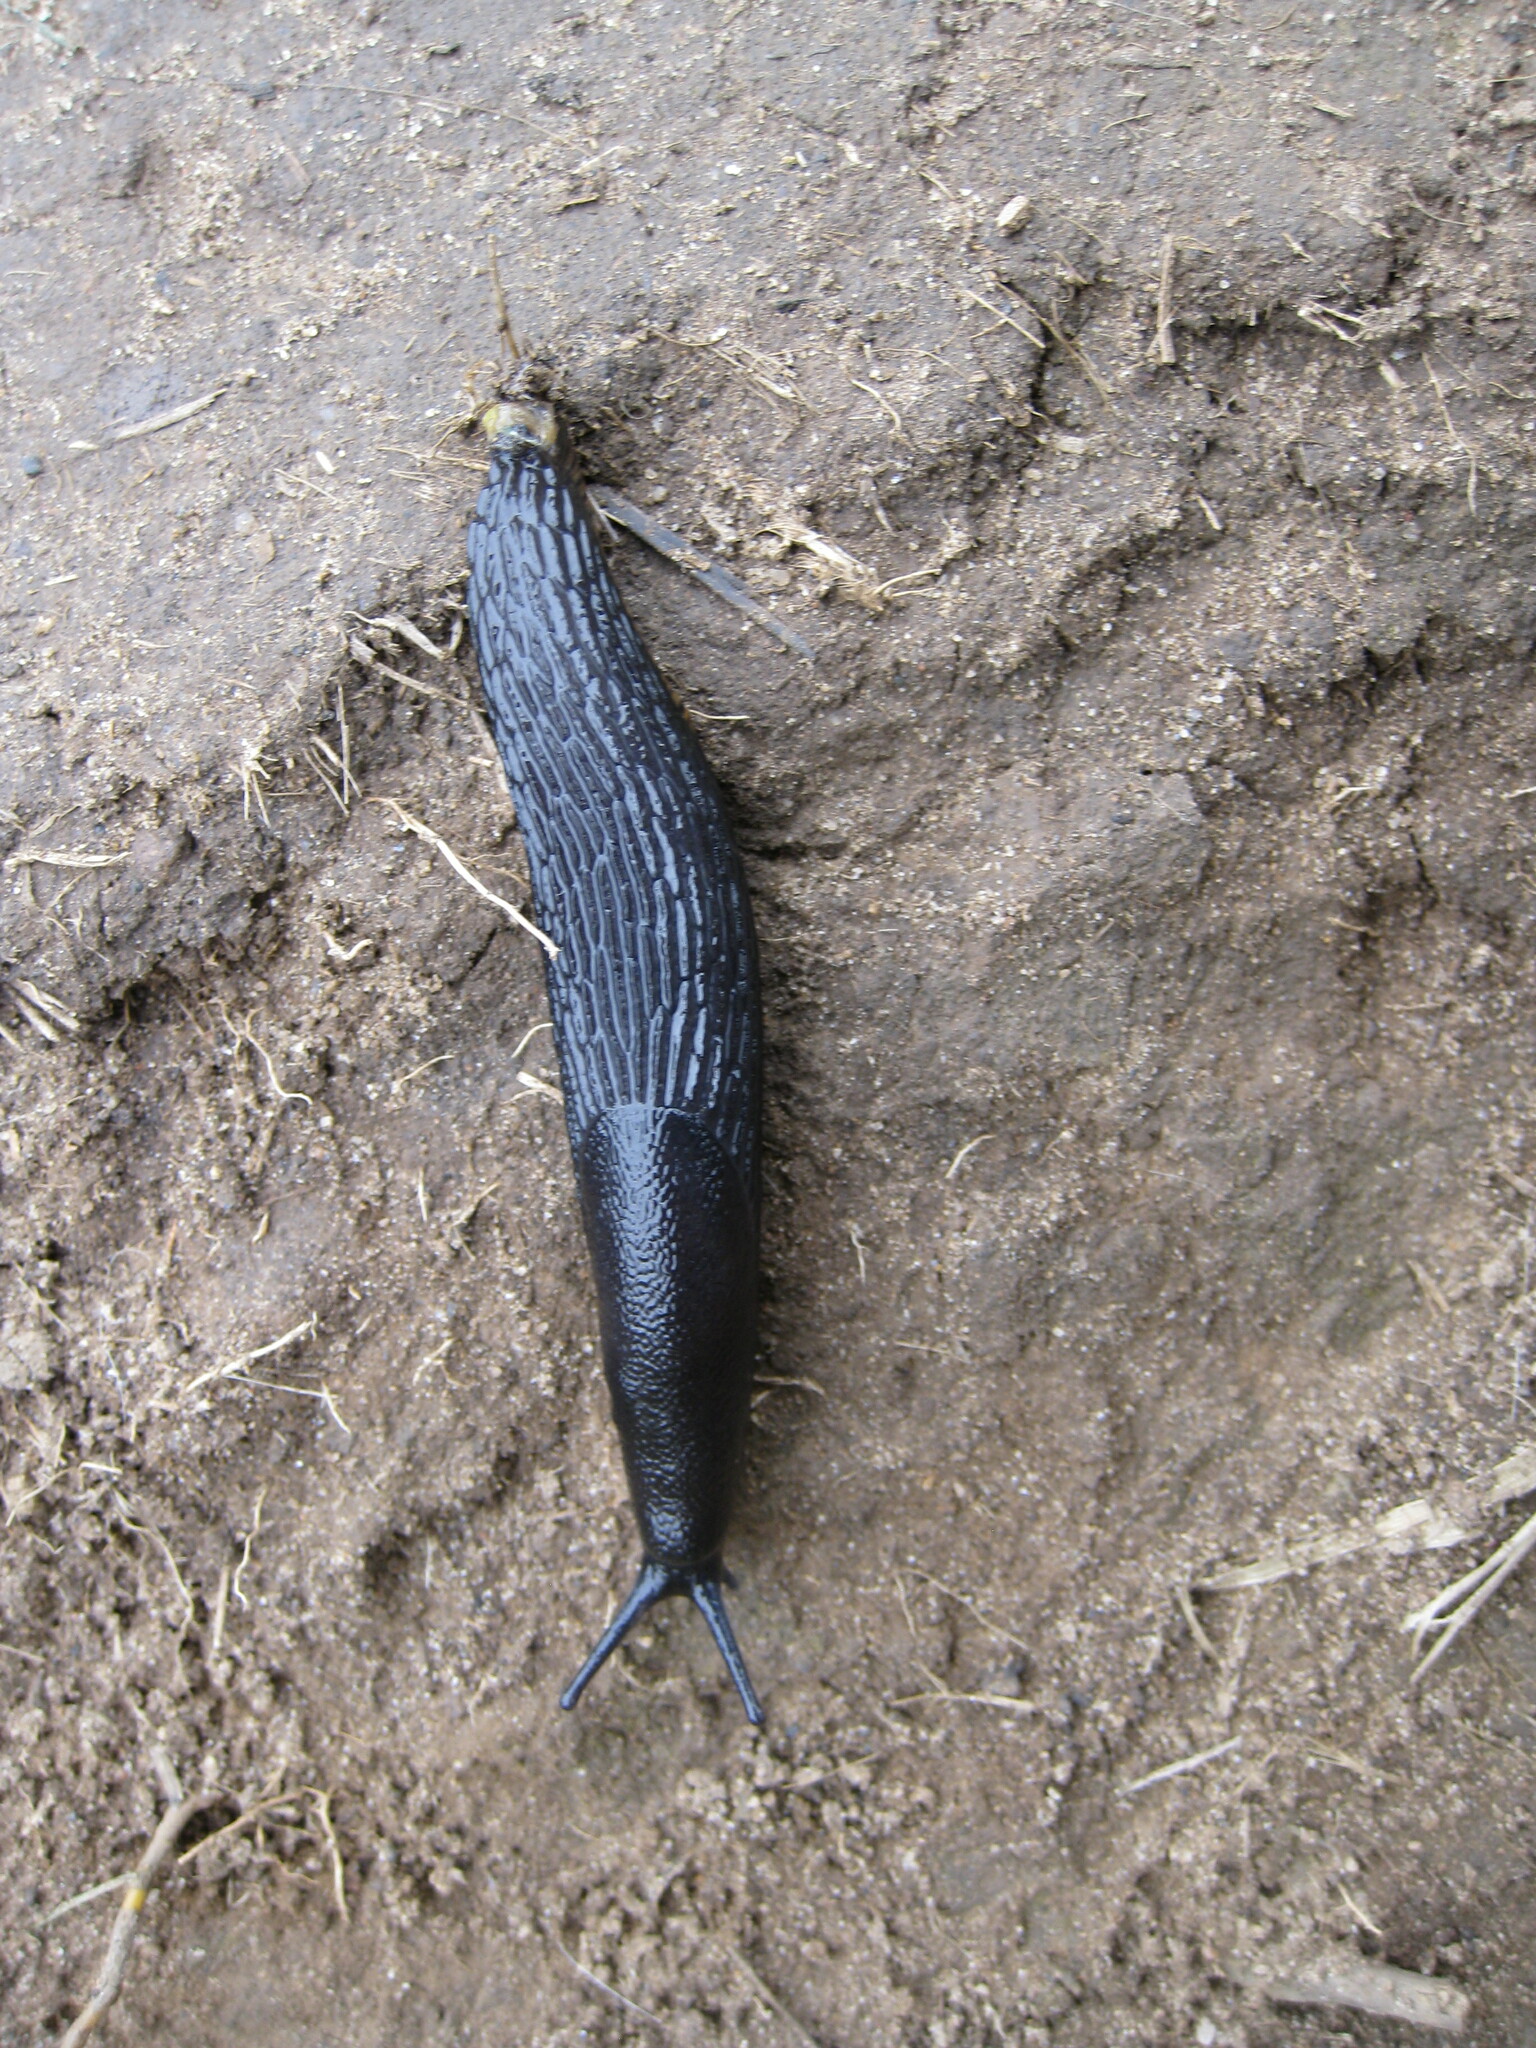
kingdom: Animalia
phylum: Mollusca
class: Gastropoda
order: Stylommatophora
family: Arionidae
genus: Arion
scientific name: Arion
